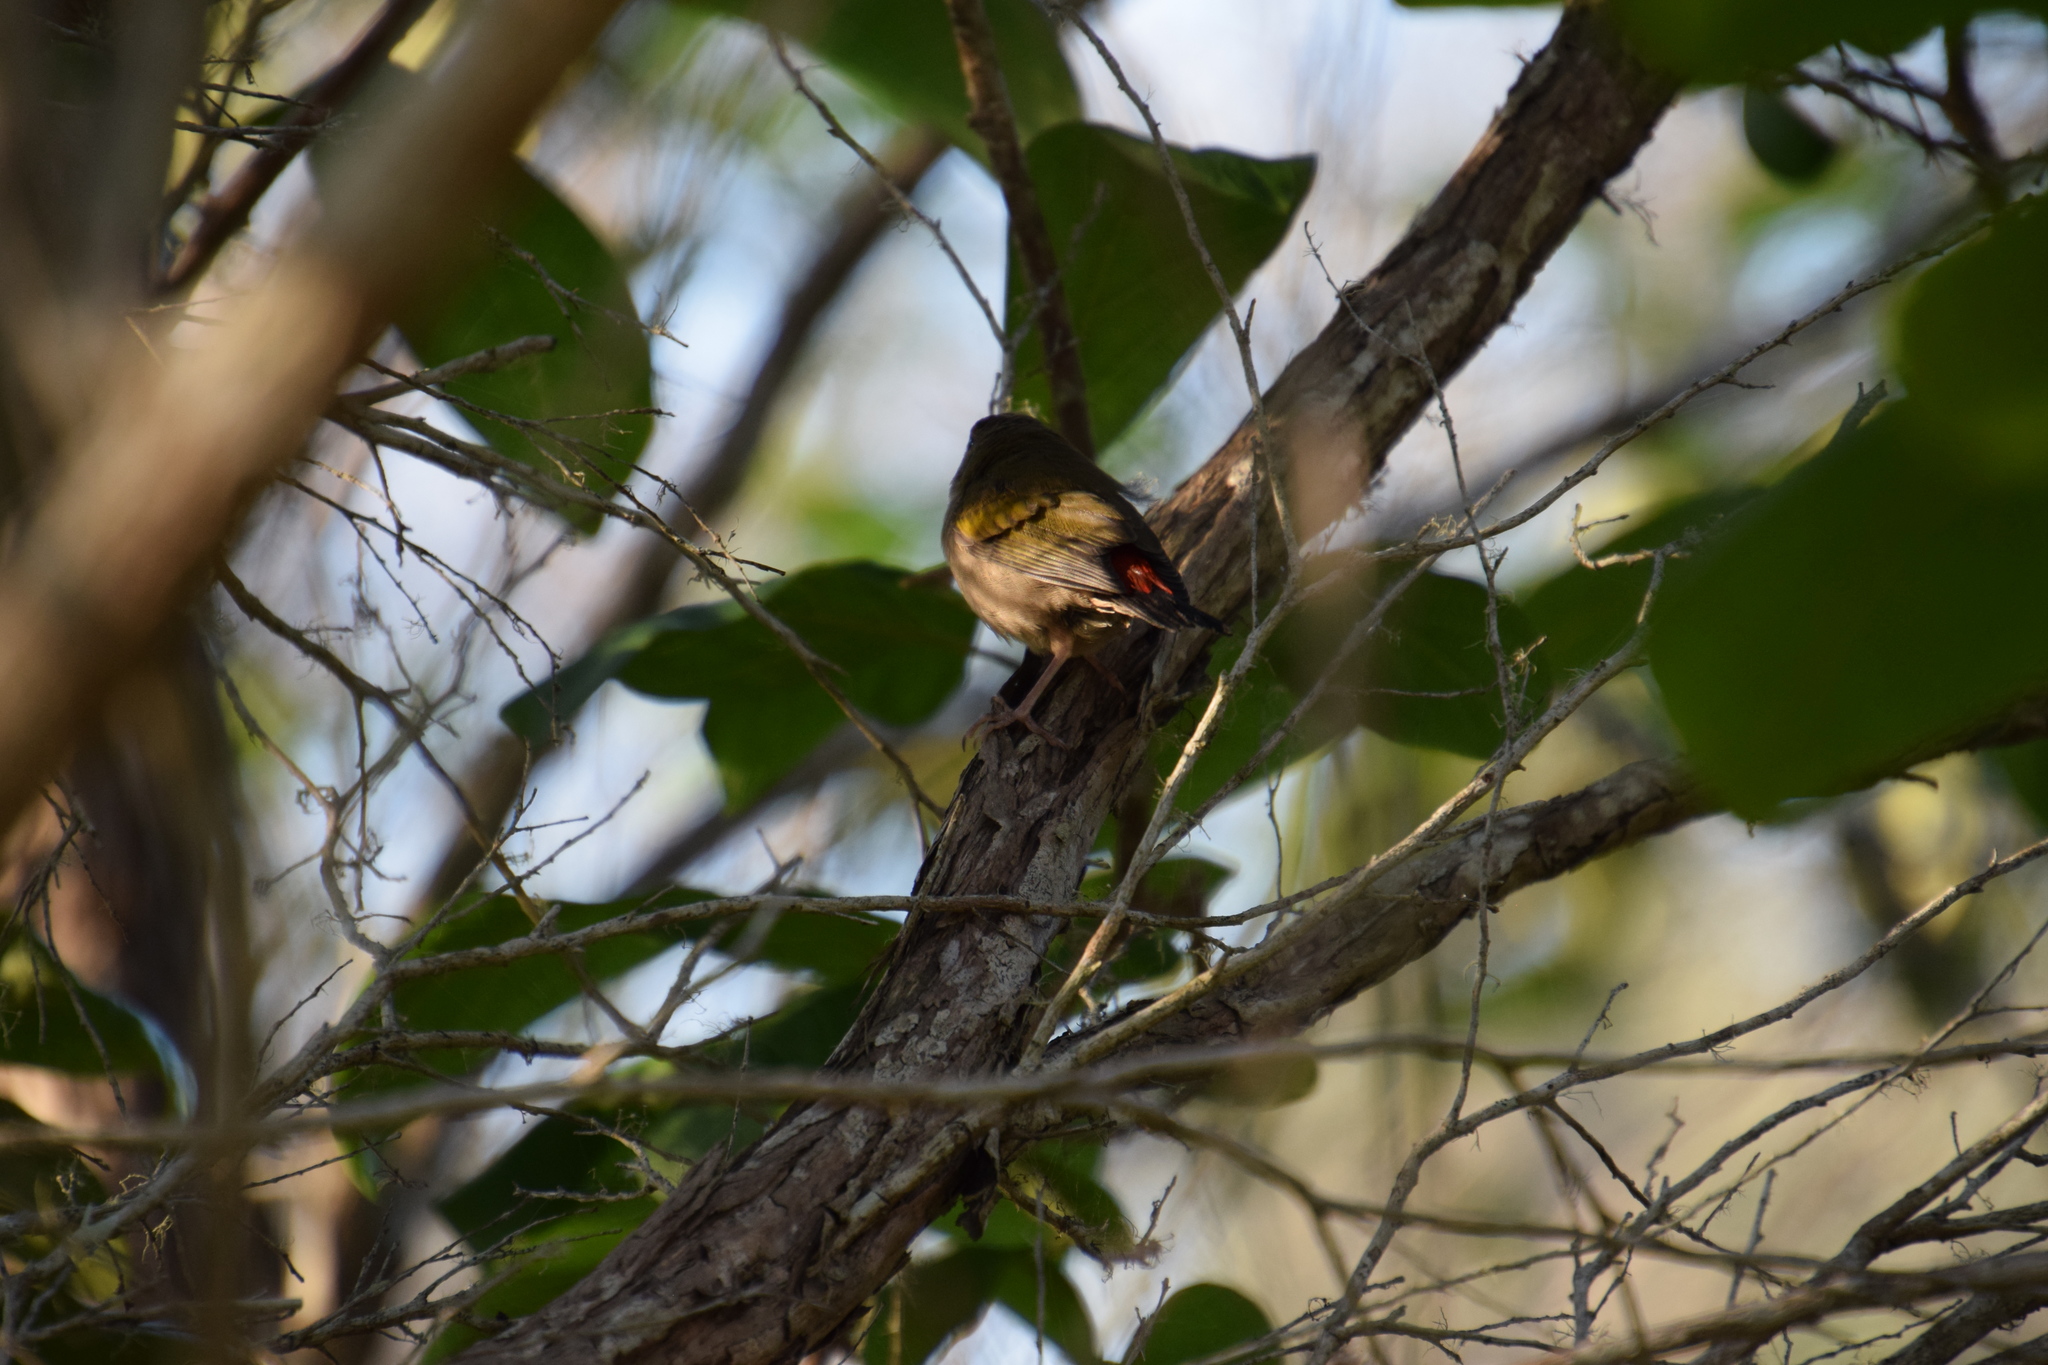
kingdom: Animalia
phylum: Chordata
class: Aves
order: Passeriformes
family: Estrildidae
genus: Neochmia
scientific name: Neochmia temporalis
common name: Red-browed finch
